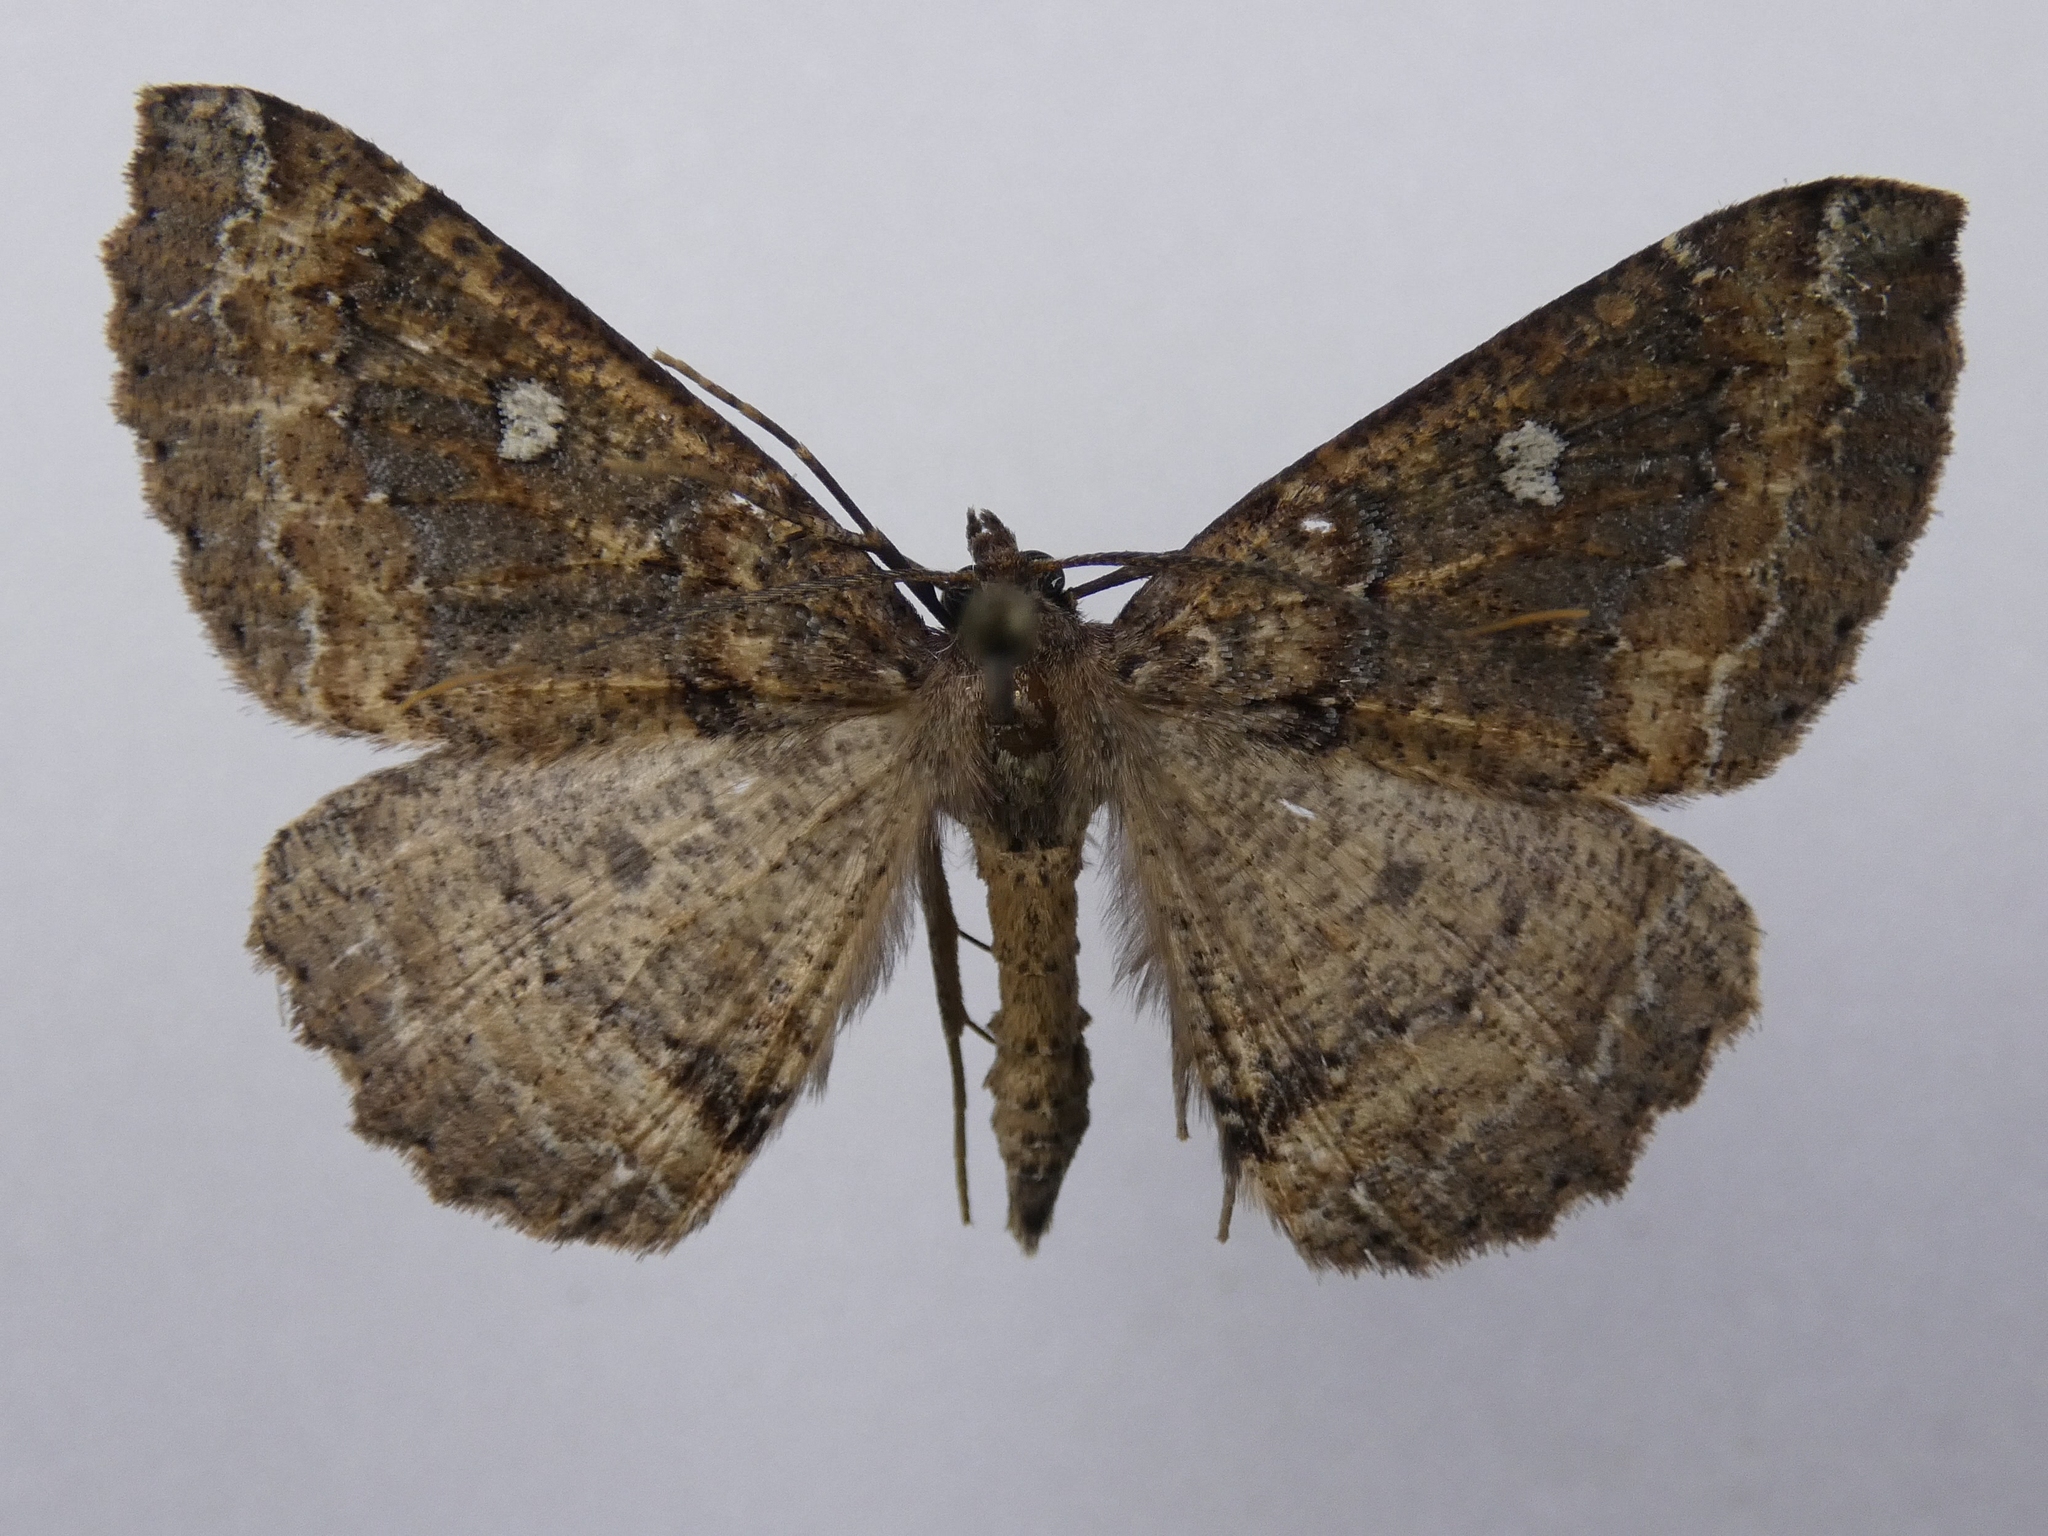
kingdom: Animalia
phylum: Arthropoda
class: Insecta
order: Lepidoptera
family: Geometridae
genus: Cleora
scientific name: Cleora scriptaria
